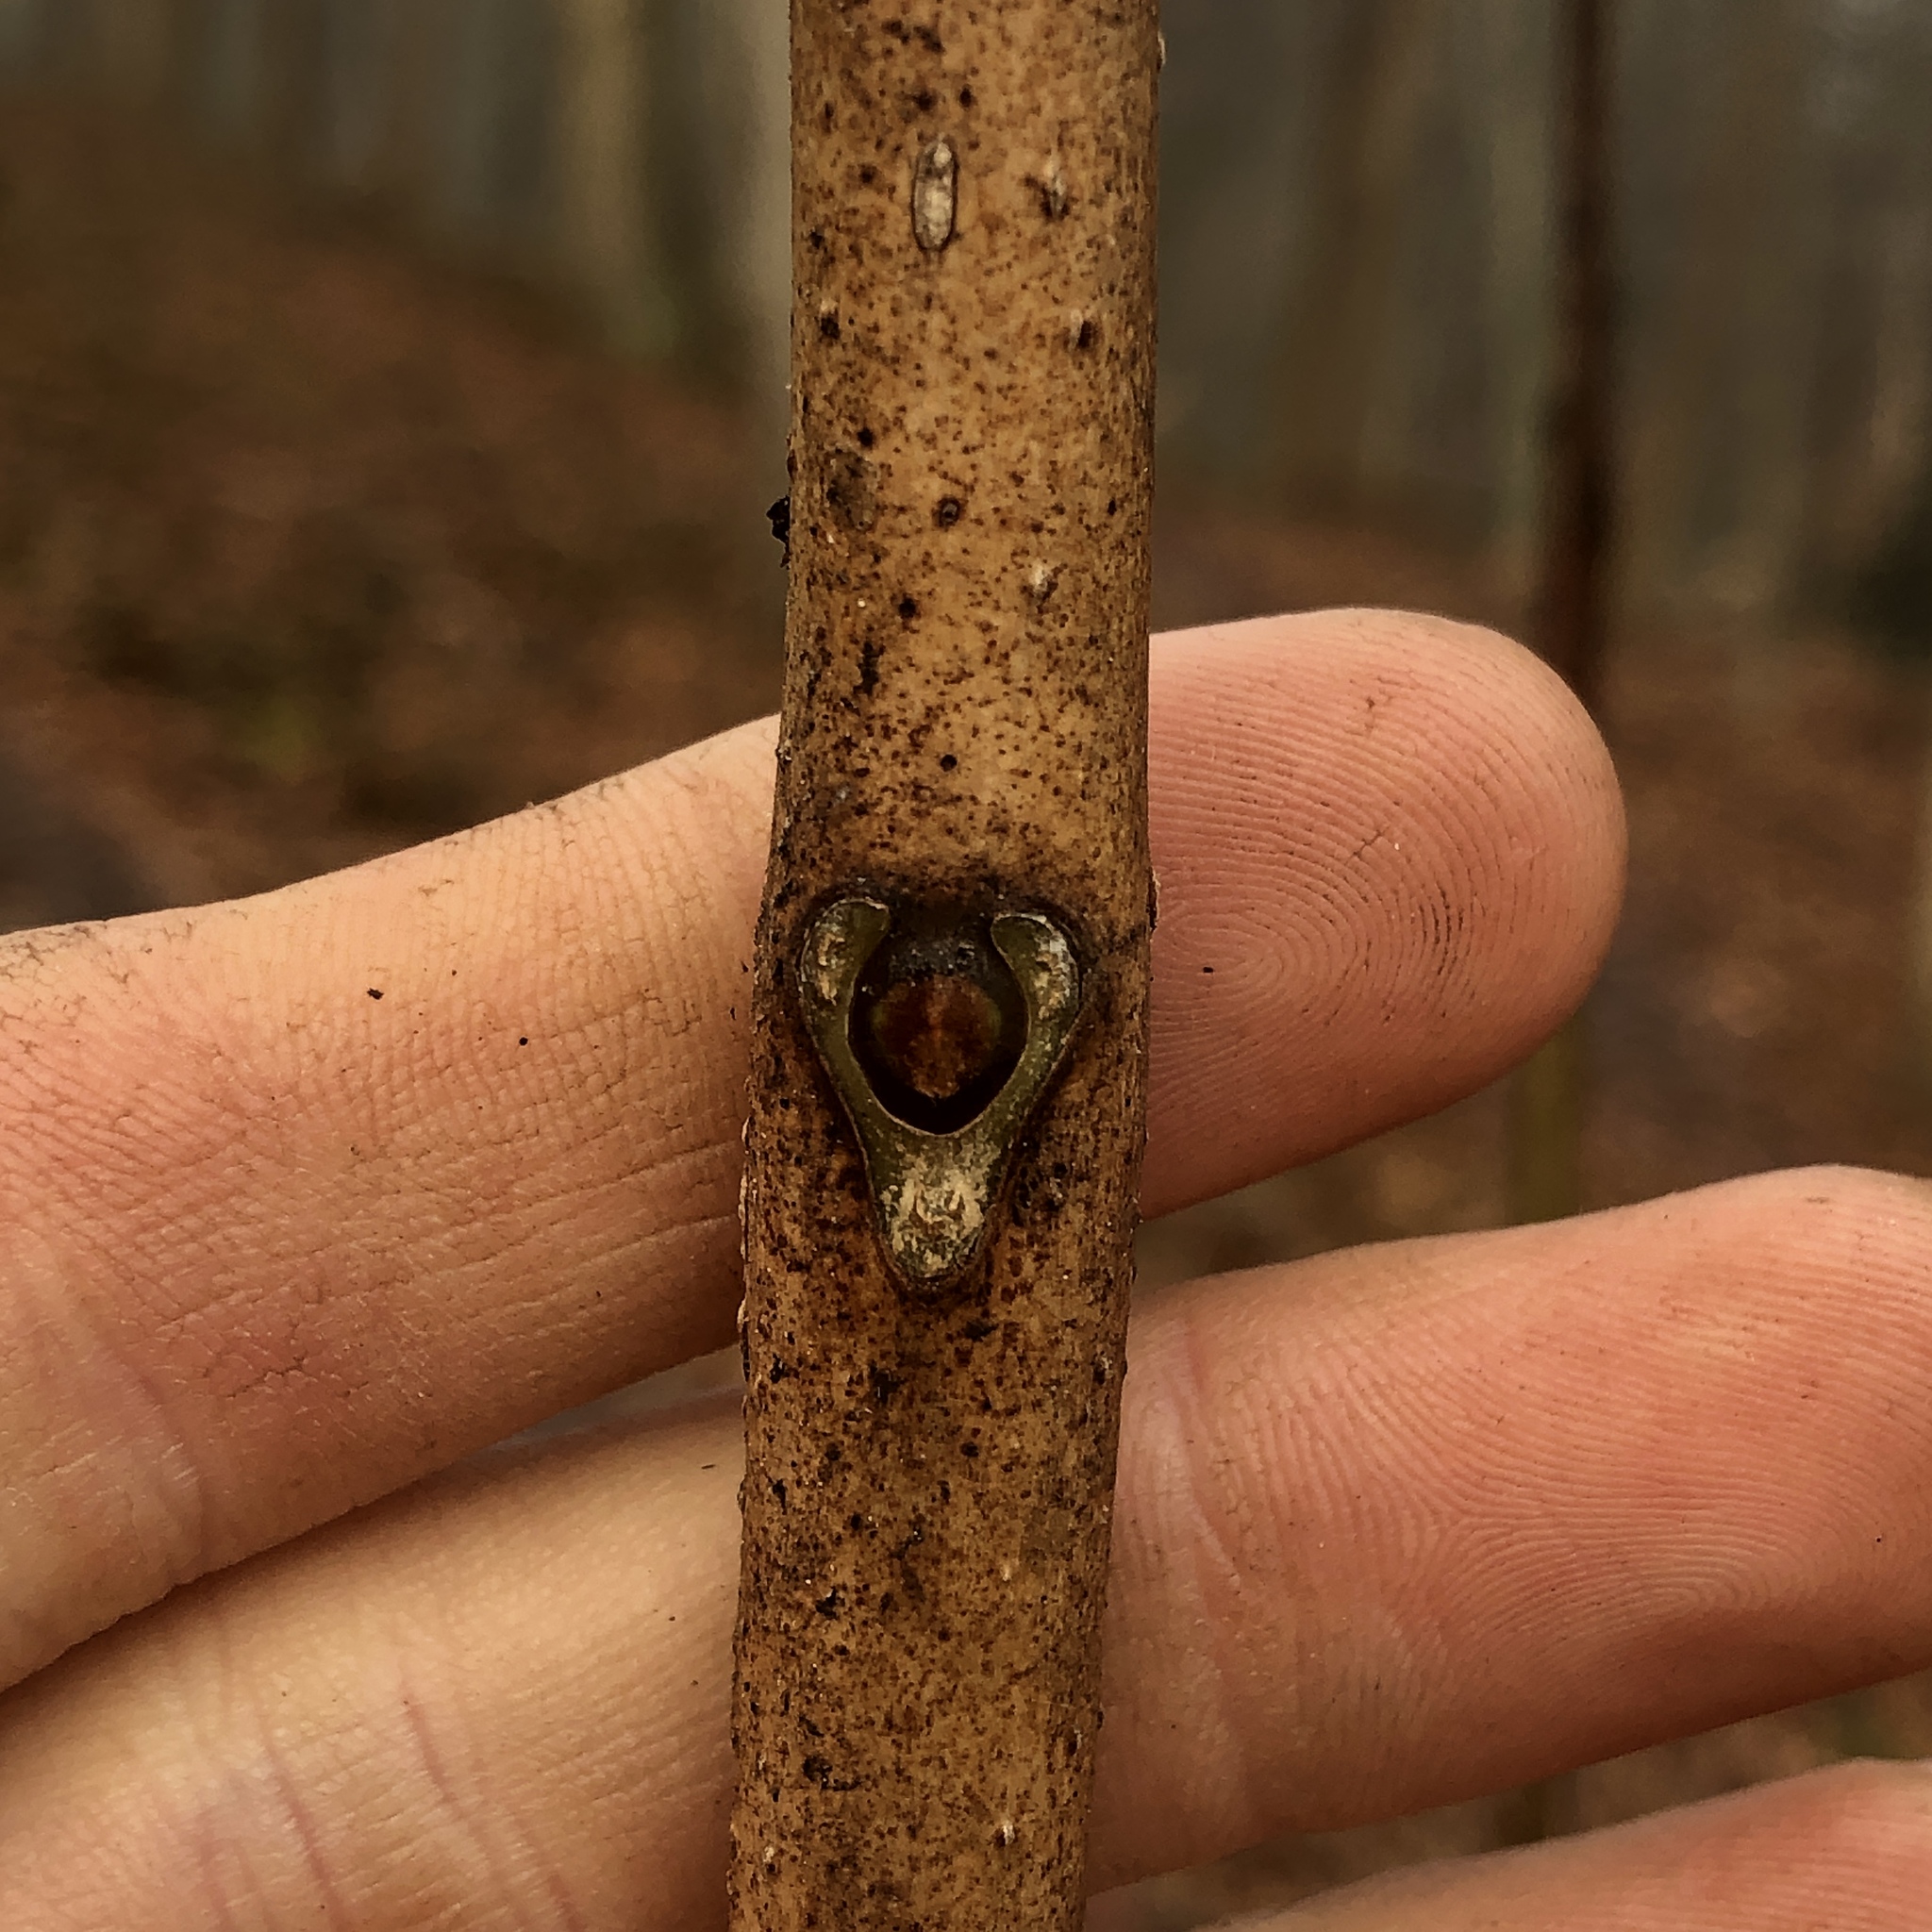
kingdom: Plantae
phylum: Tracheophyta
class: Magnoliopsida
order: Sapindales
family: Rutaceae
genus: Phellodendron
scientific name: Phellodendron amurense
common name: Amur corktree
